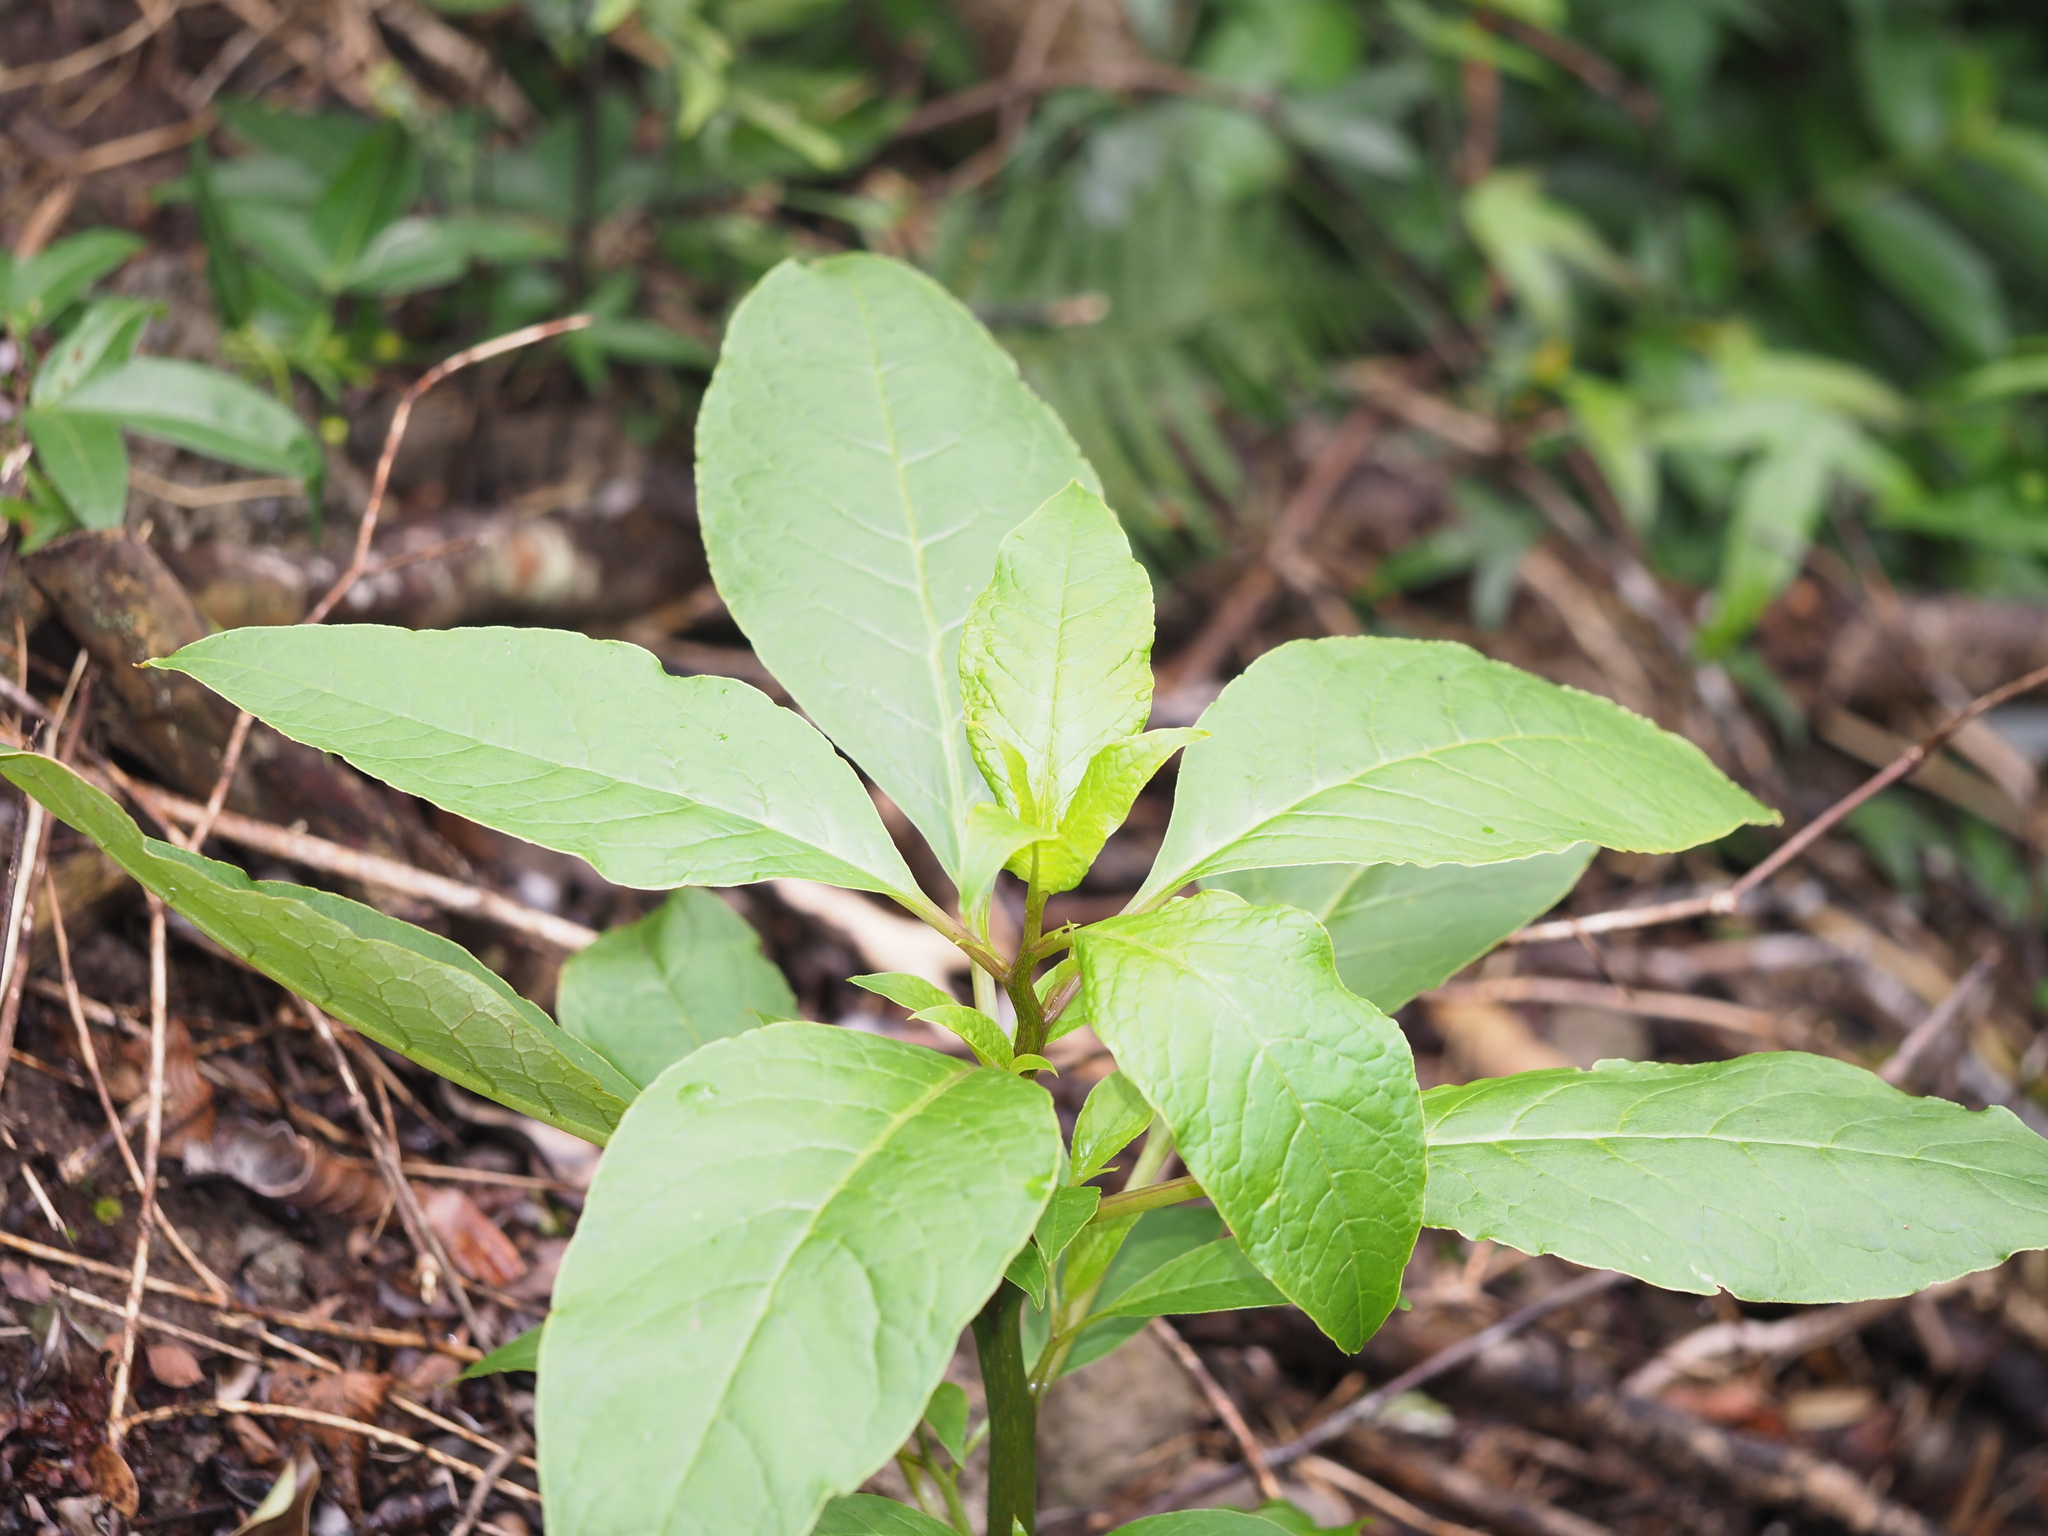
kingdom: Plantae
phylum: Tracheophyta
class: Magnoliopsida
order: Caryophyllales
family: Phytolaccaceae
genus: Phytolacca
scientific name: Phytolacca icosandra
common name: Button pokeweed
